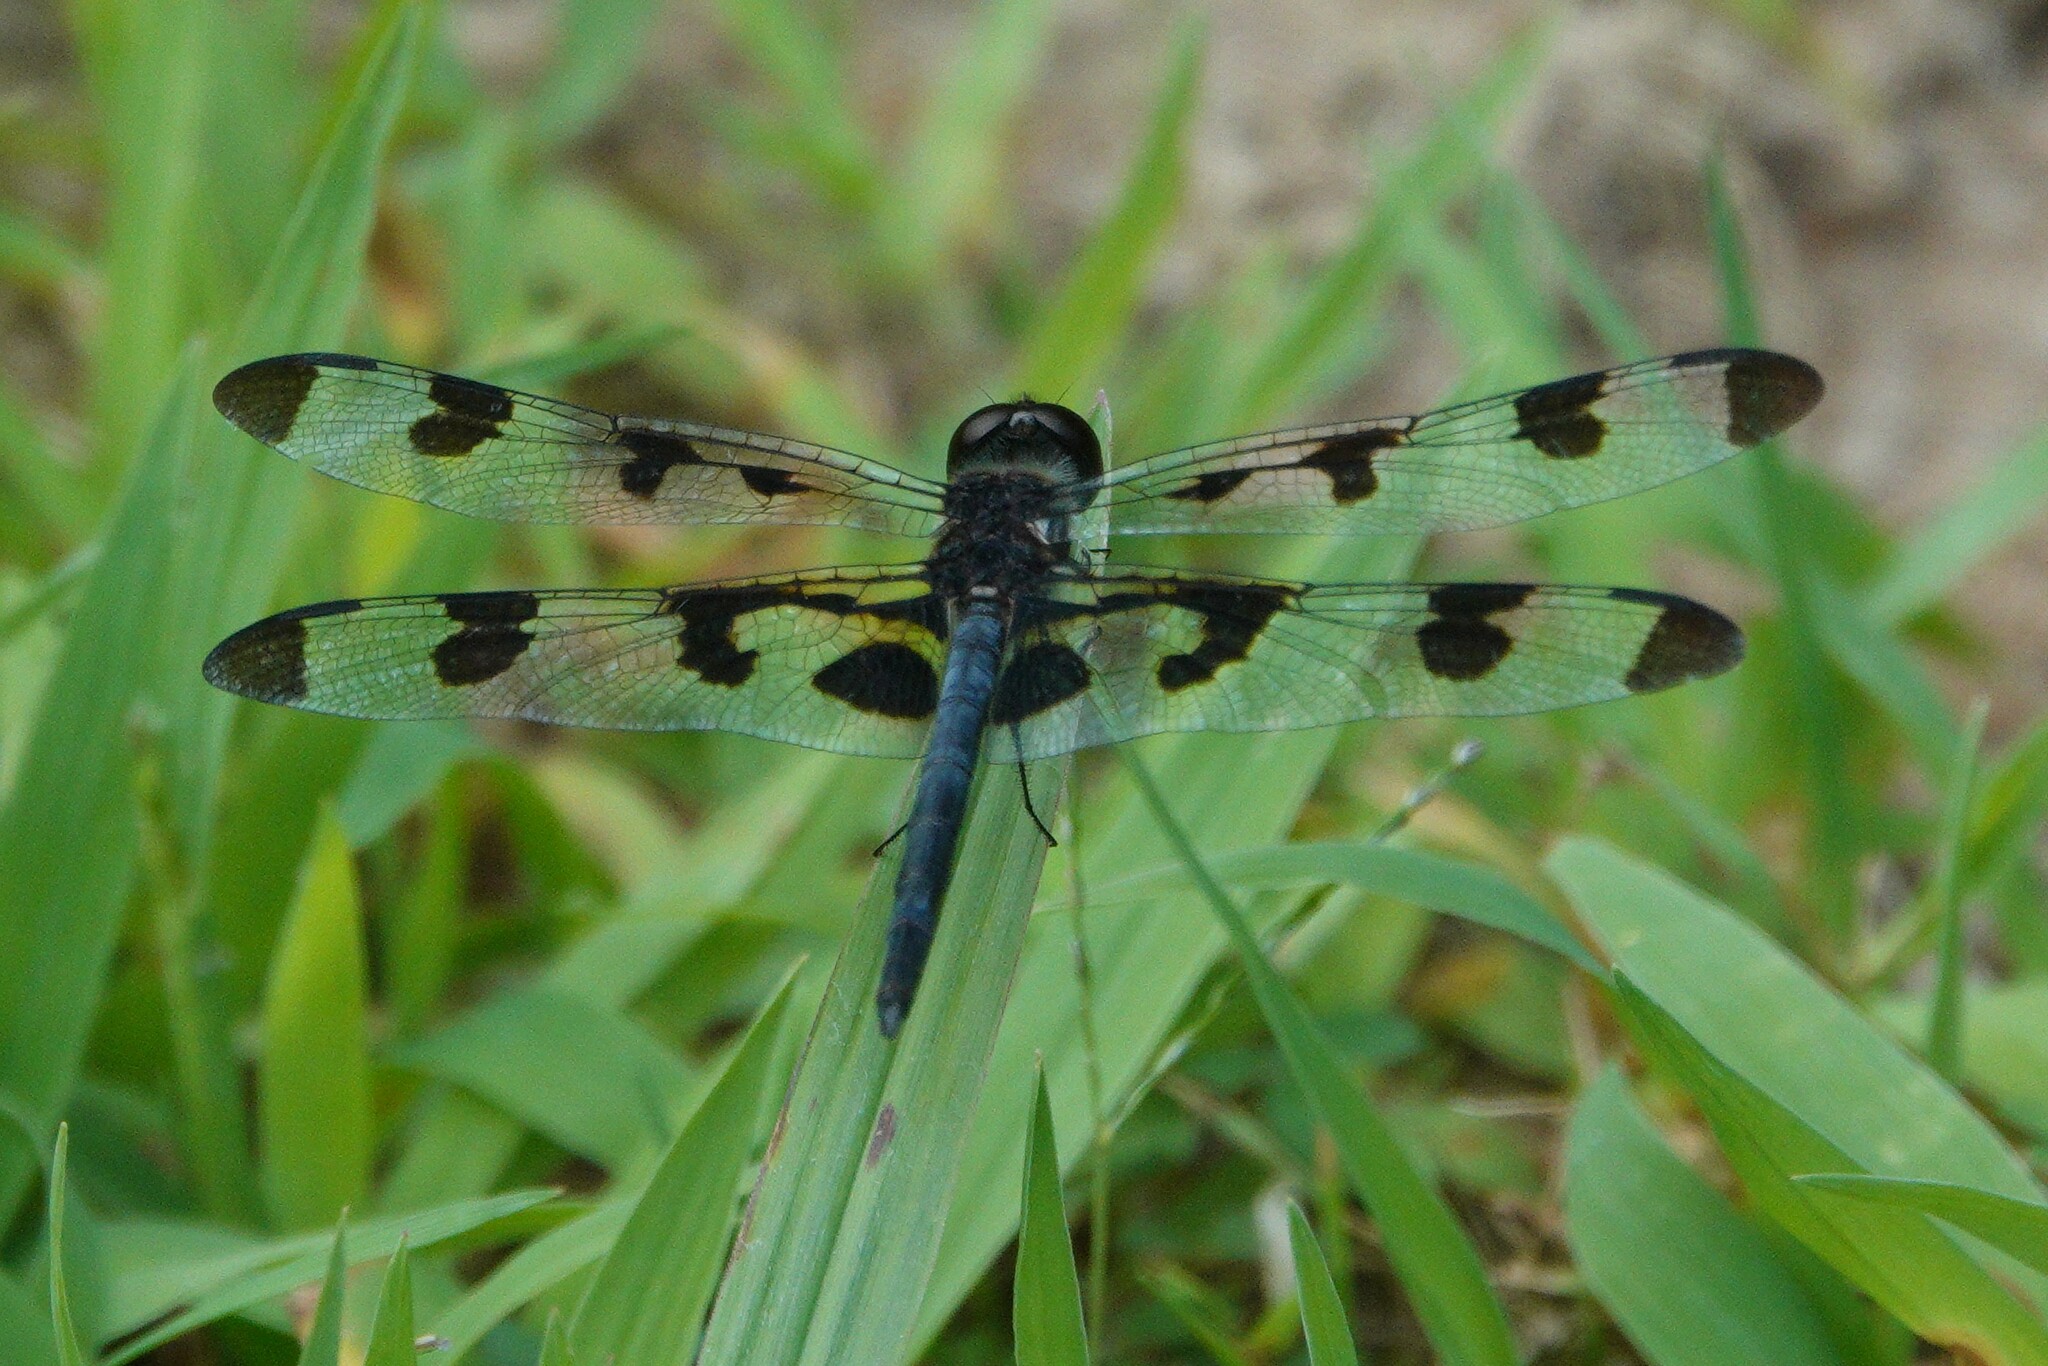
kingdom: Animalia
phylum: Arthropoda
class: Insecta
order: Odonata
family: Libellulidae
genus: Celithemis
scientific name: Celithemis fasciata
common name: Banded pennant
